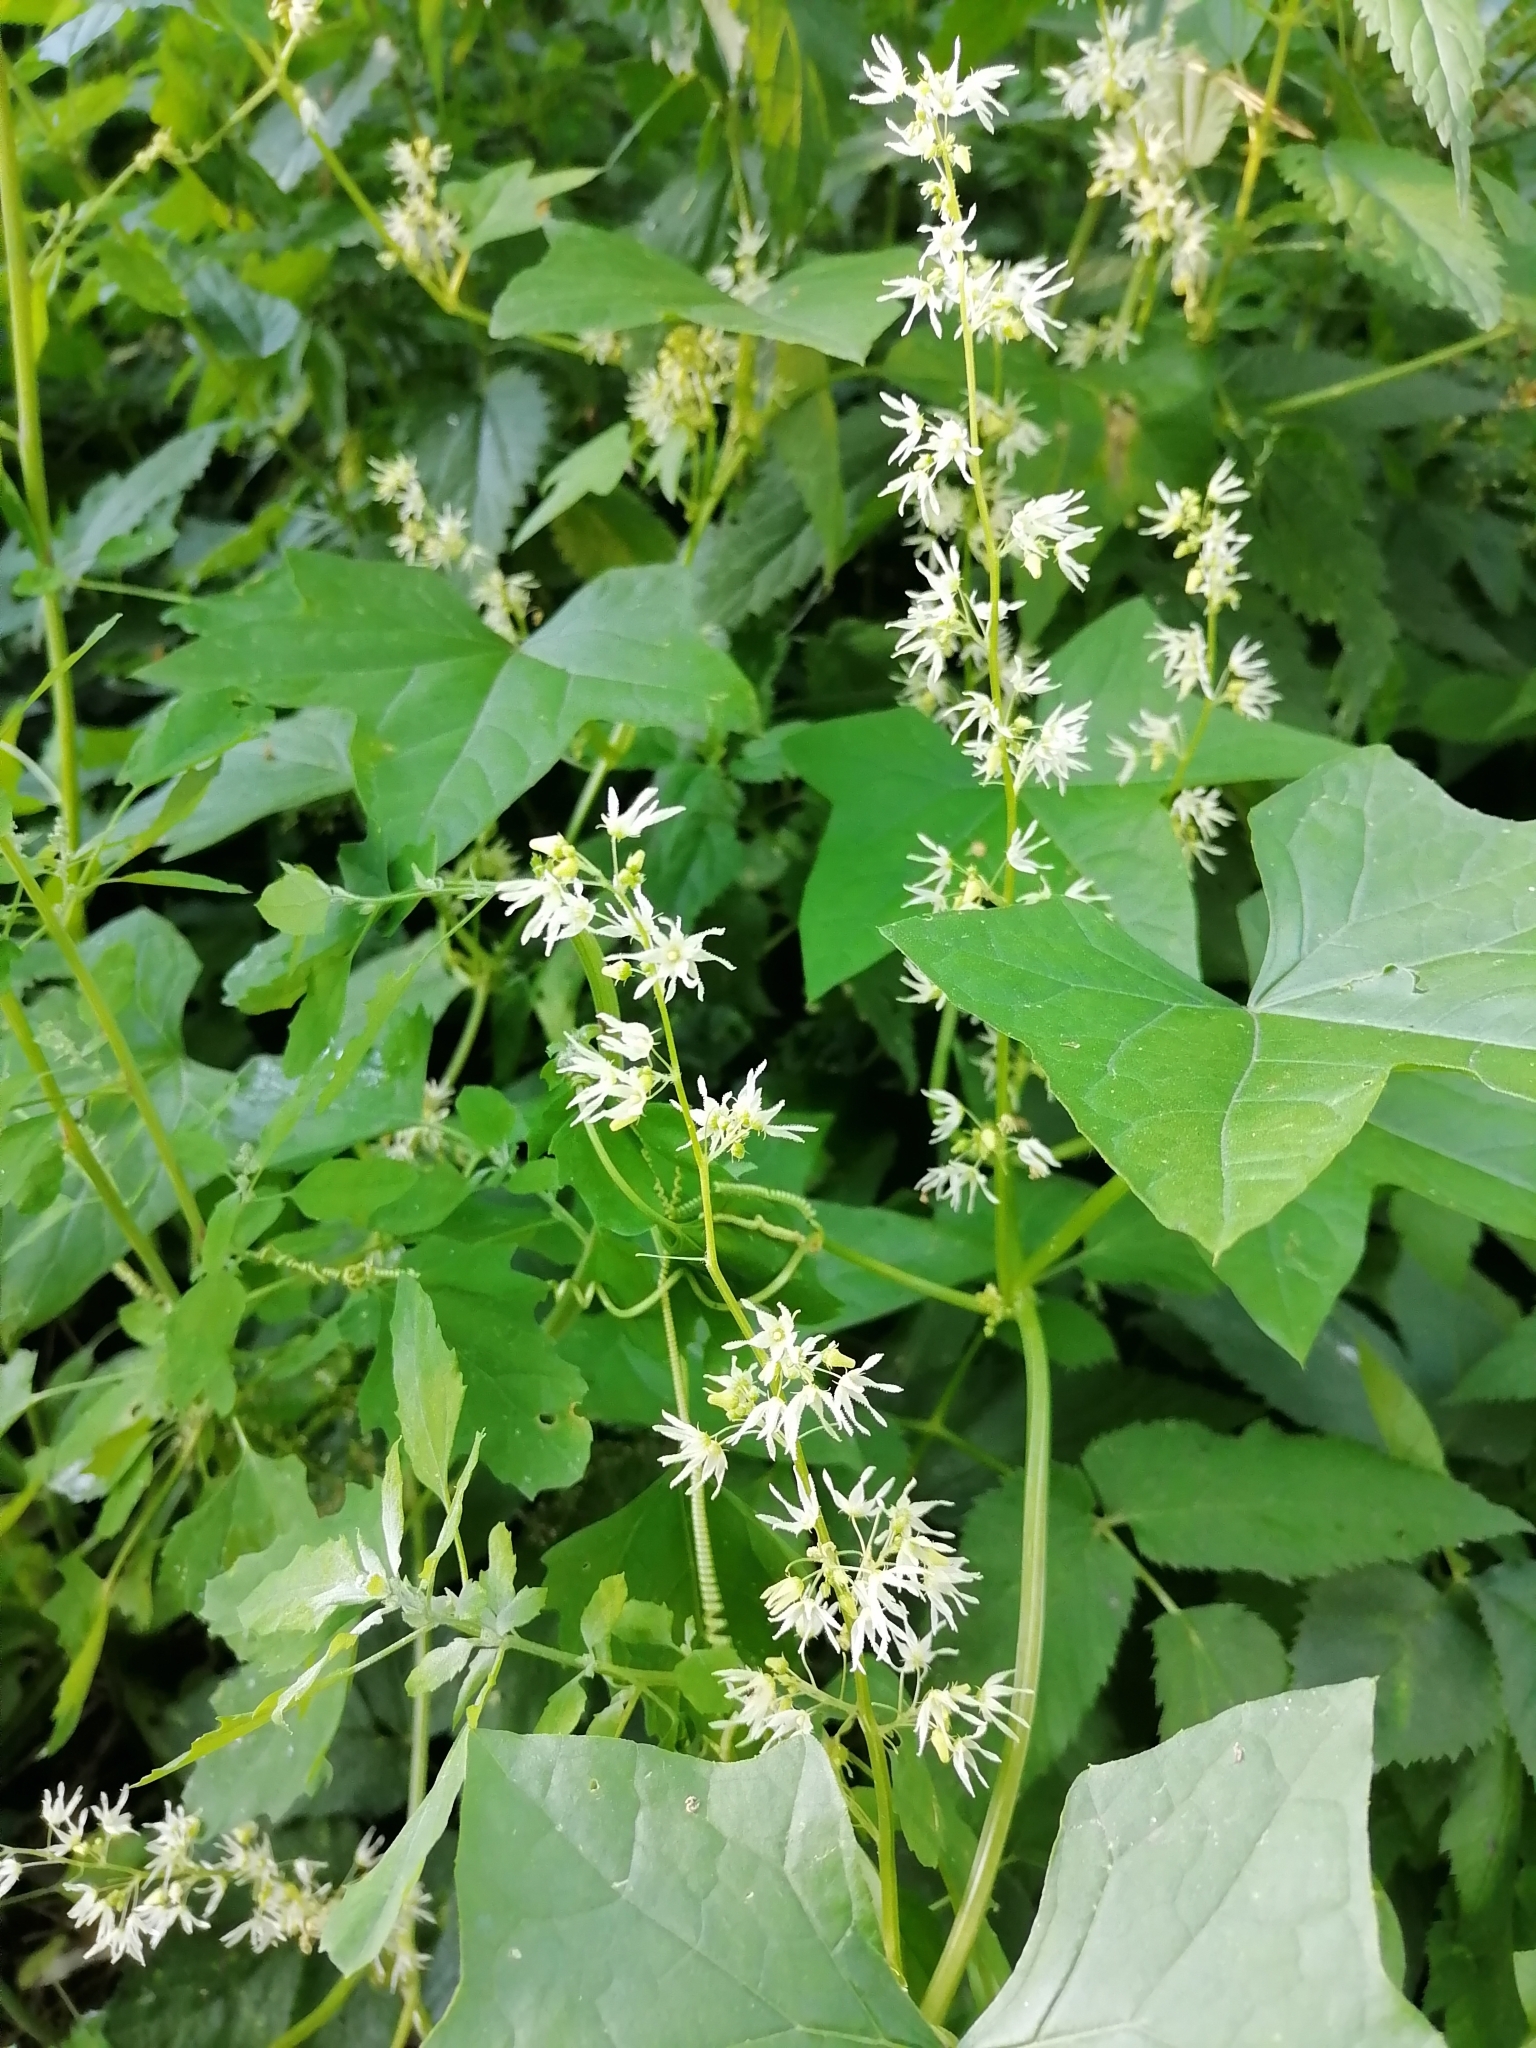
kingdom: Plantae
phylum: Tracheophyta
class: Magnoliopsida
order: Cucurbitales
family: Cucurbitaceae
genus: Echinocystis
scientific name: Echinocystis lobata
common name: Wild cucumber
